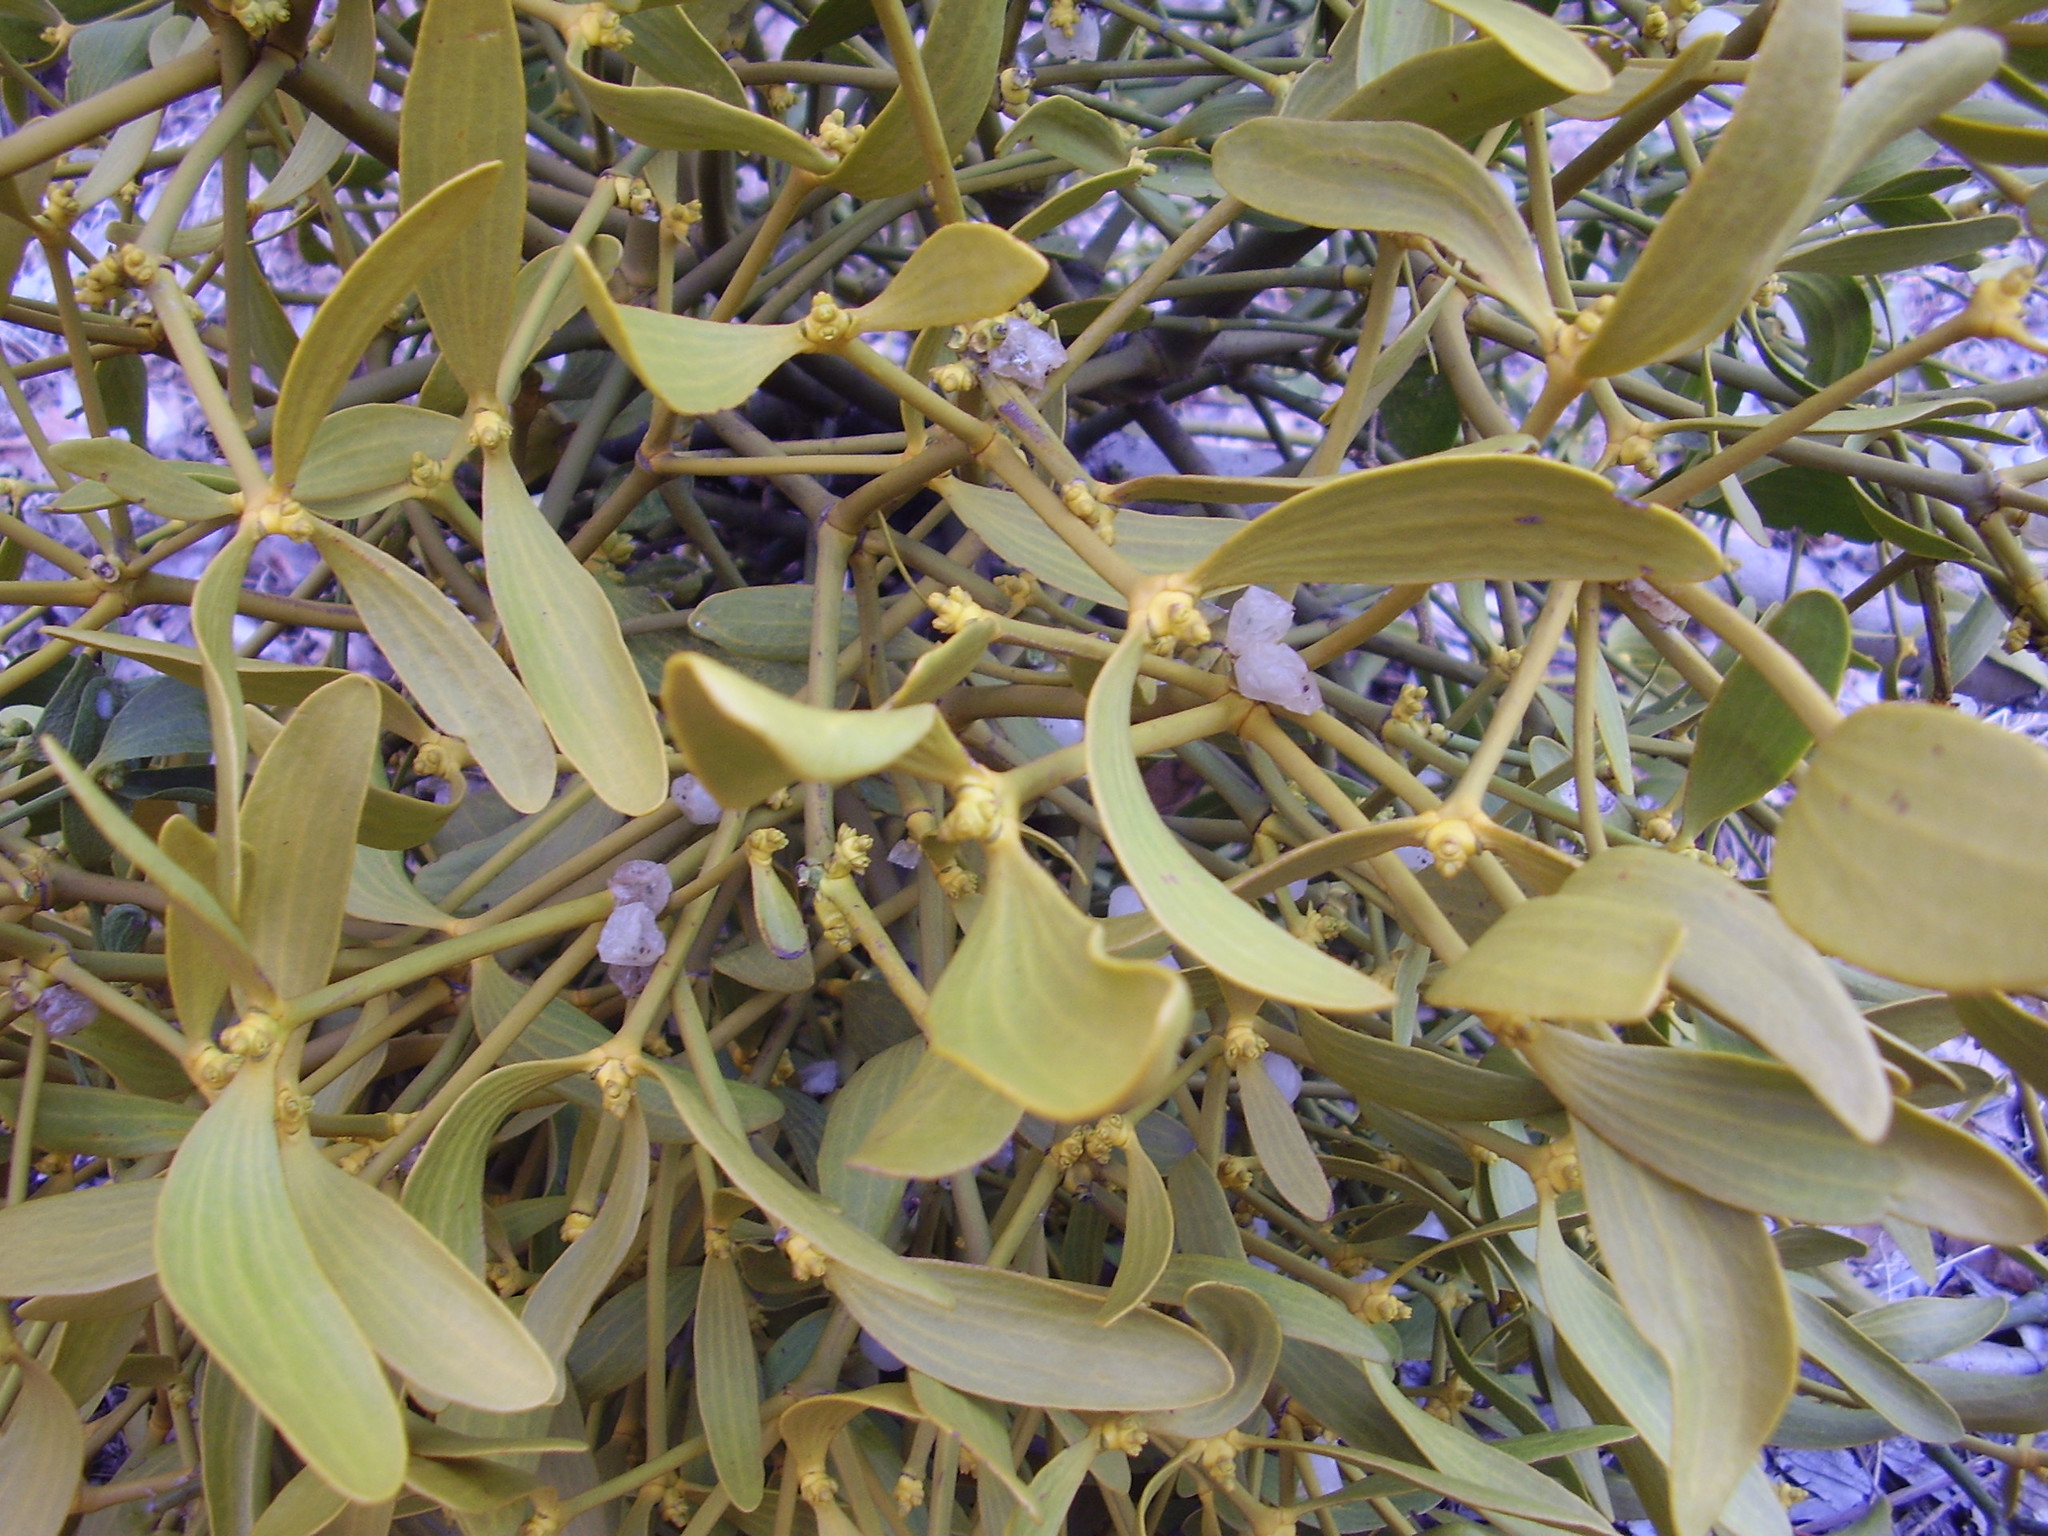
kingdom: Plantae
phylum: Tracheophyta
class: Magnoliopsida
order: Santalales
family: Viscaceae
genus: Viscum
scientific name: Viscum album
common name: Mistletoe
